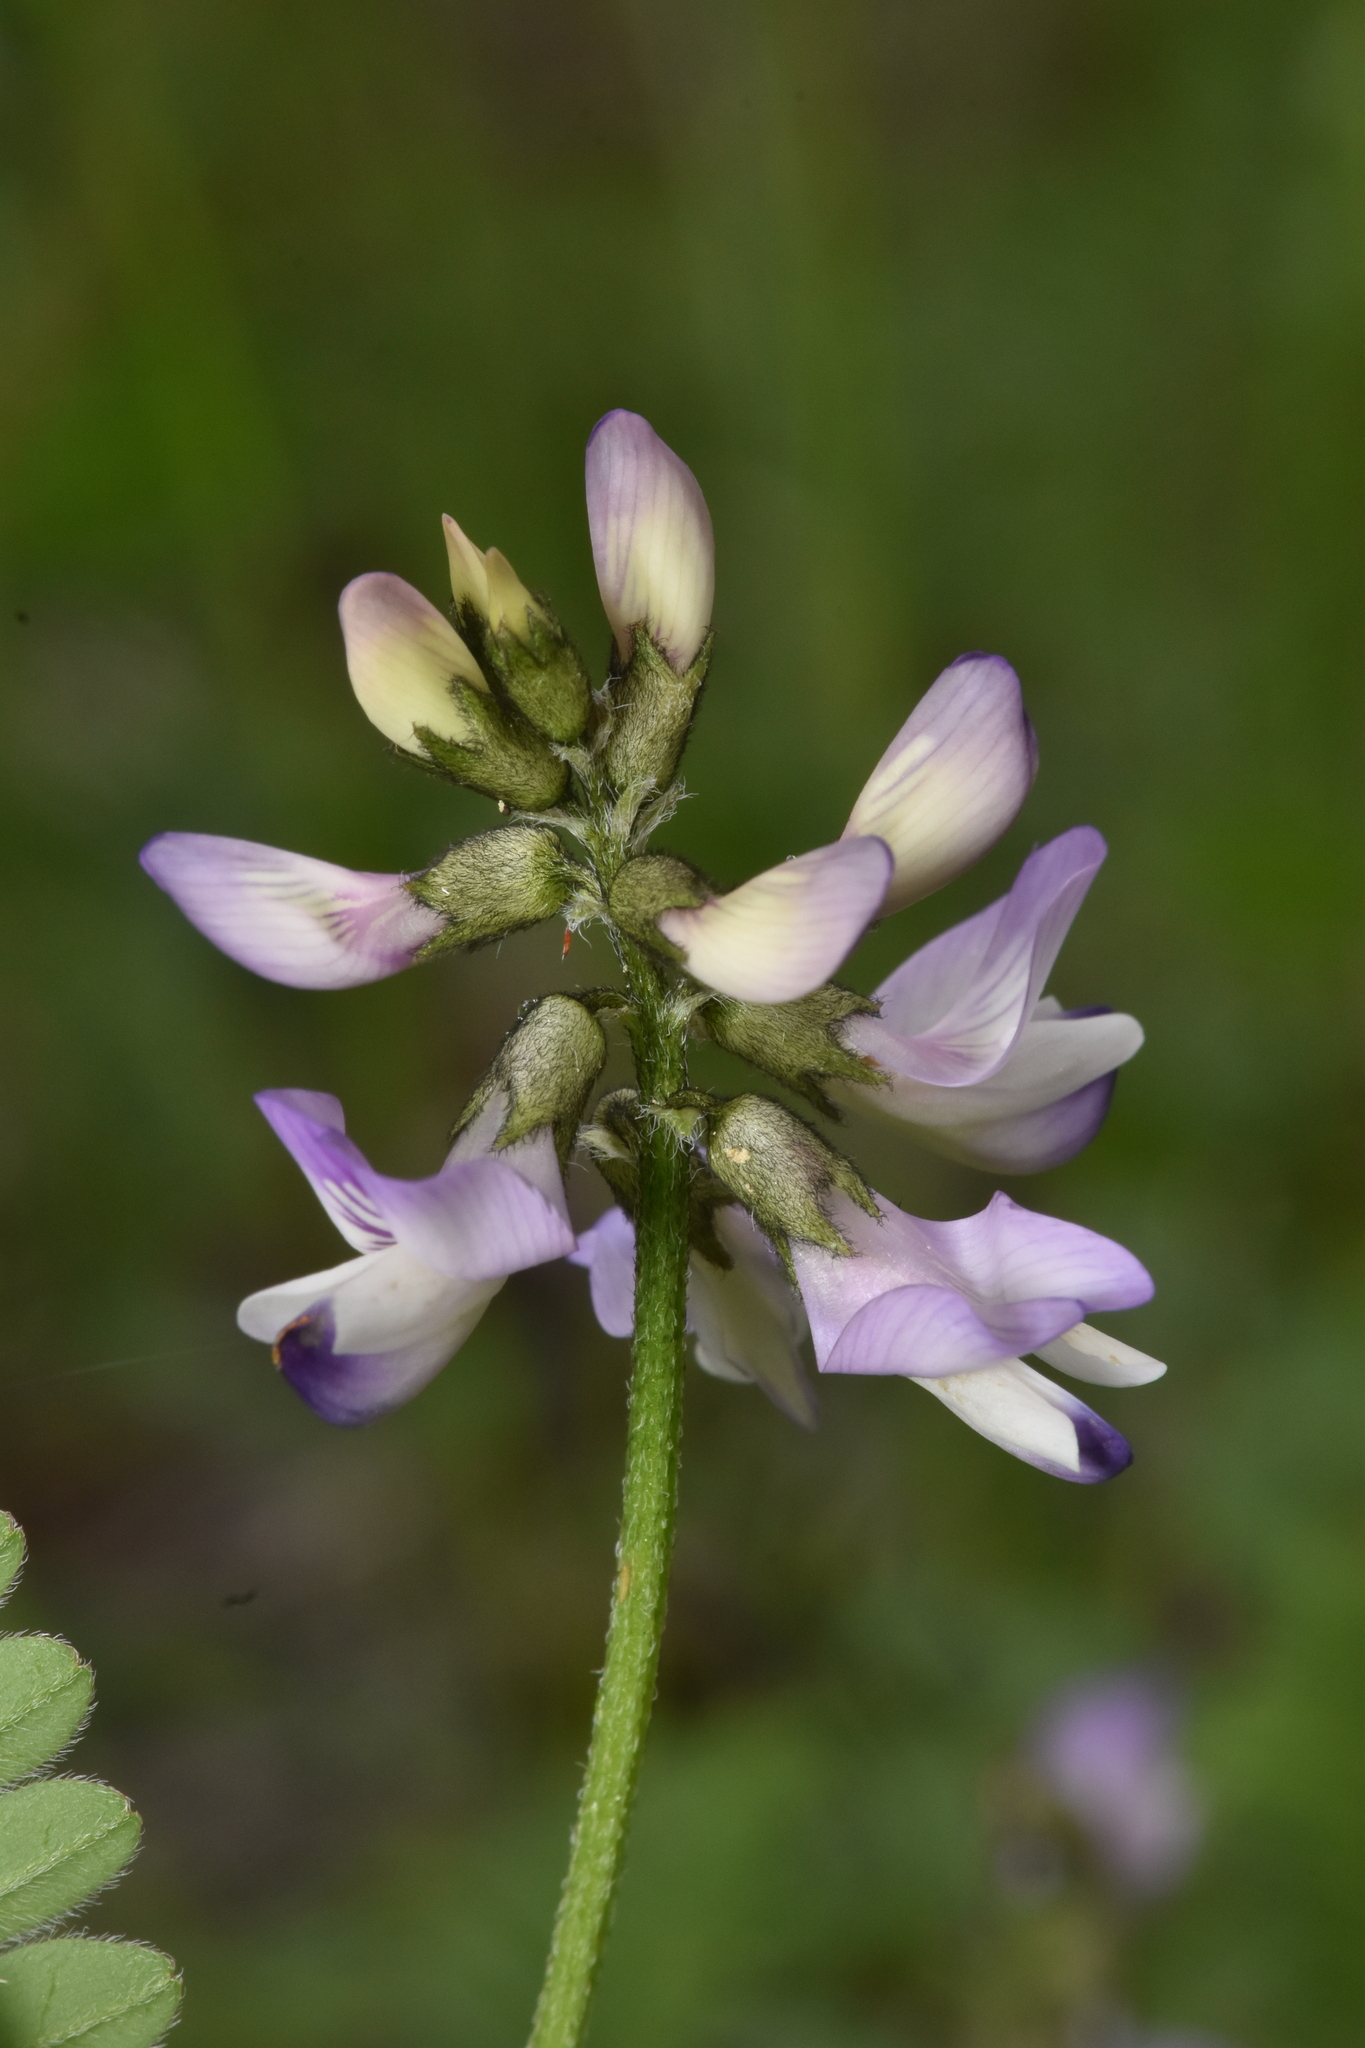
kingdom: Plantae
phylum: Tracheophyta
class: Magnoliopsida
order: Fabales
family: Fabaceae
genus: Astragalus
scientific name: Astragalus alpinus
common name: Alpine milk-vetch
